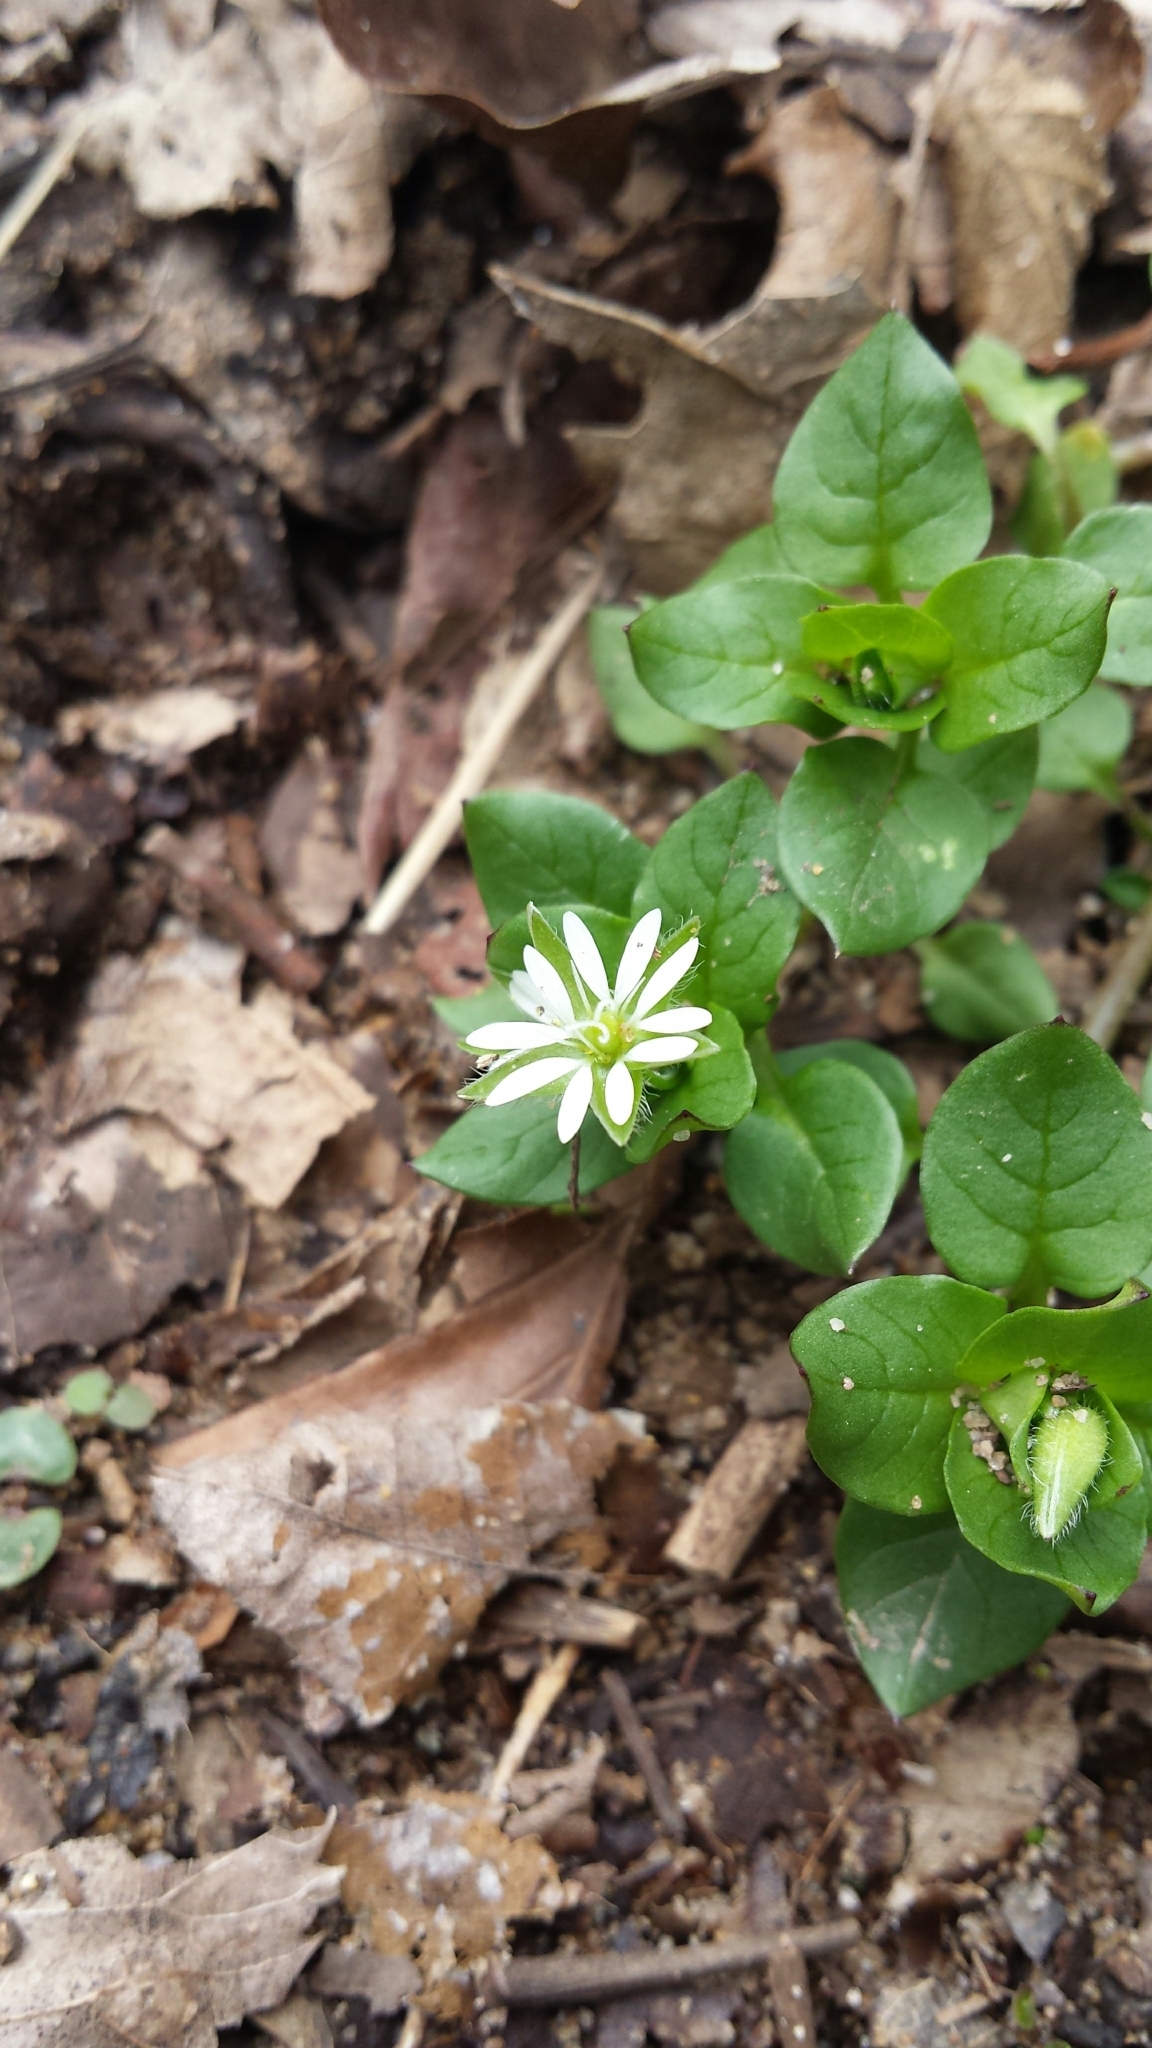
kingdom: Plantae
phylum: Tracheophyta
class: Magnoliopsida
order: Caryophyllales
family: Caryophyllaceae
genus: Stellaria
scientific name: Stellaria media
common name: Common chickweed
